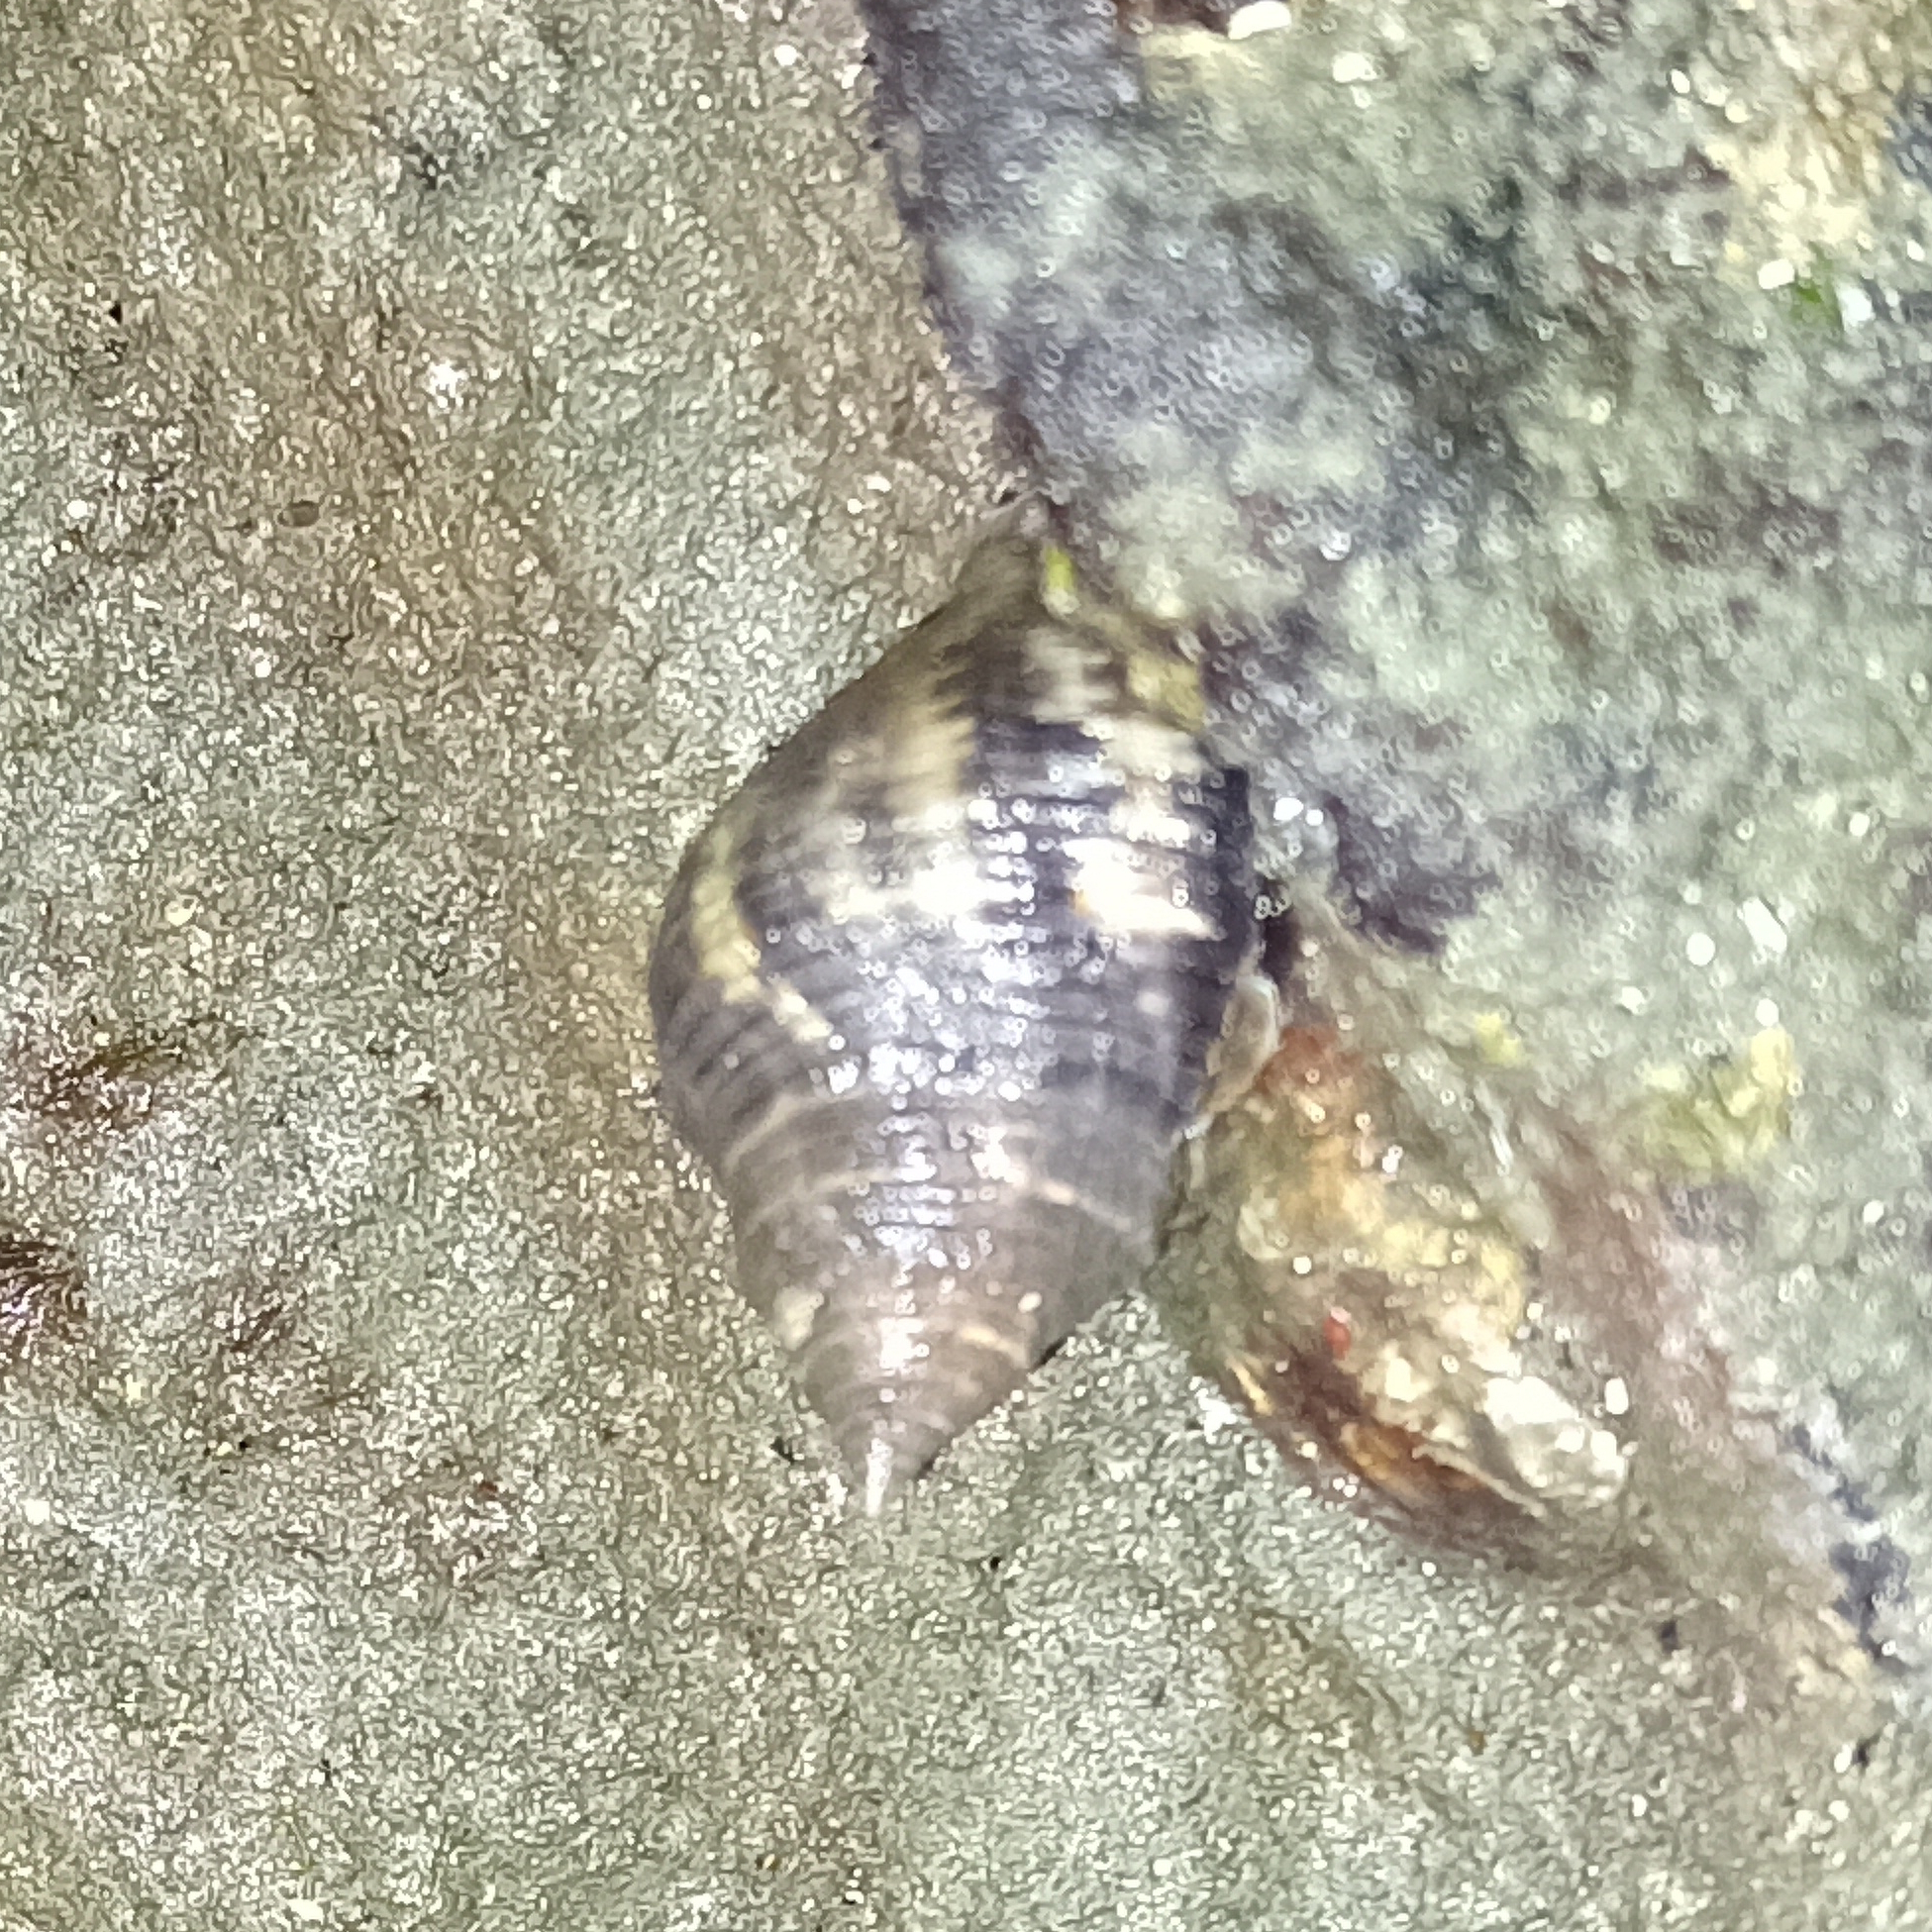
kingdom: Animalia
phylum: Mollusca
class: Gastropoda
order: Neogastropoda
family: Muricidae
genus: Stramonita
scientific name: Stramonita brasiliensis
